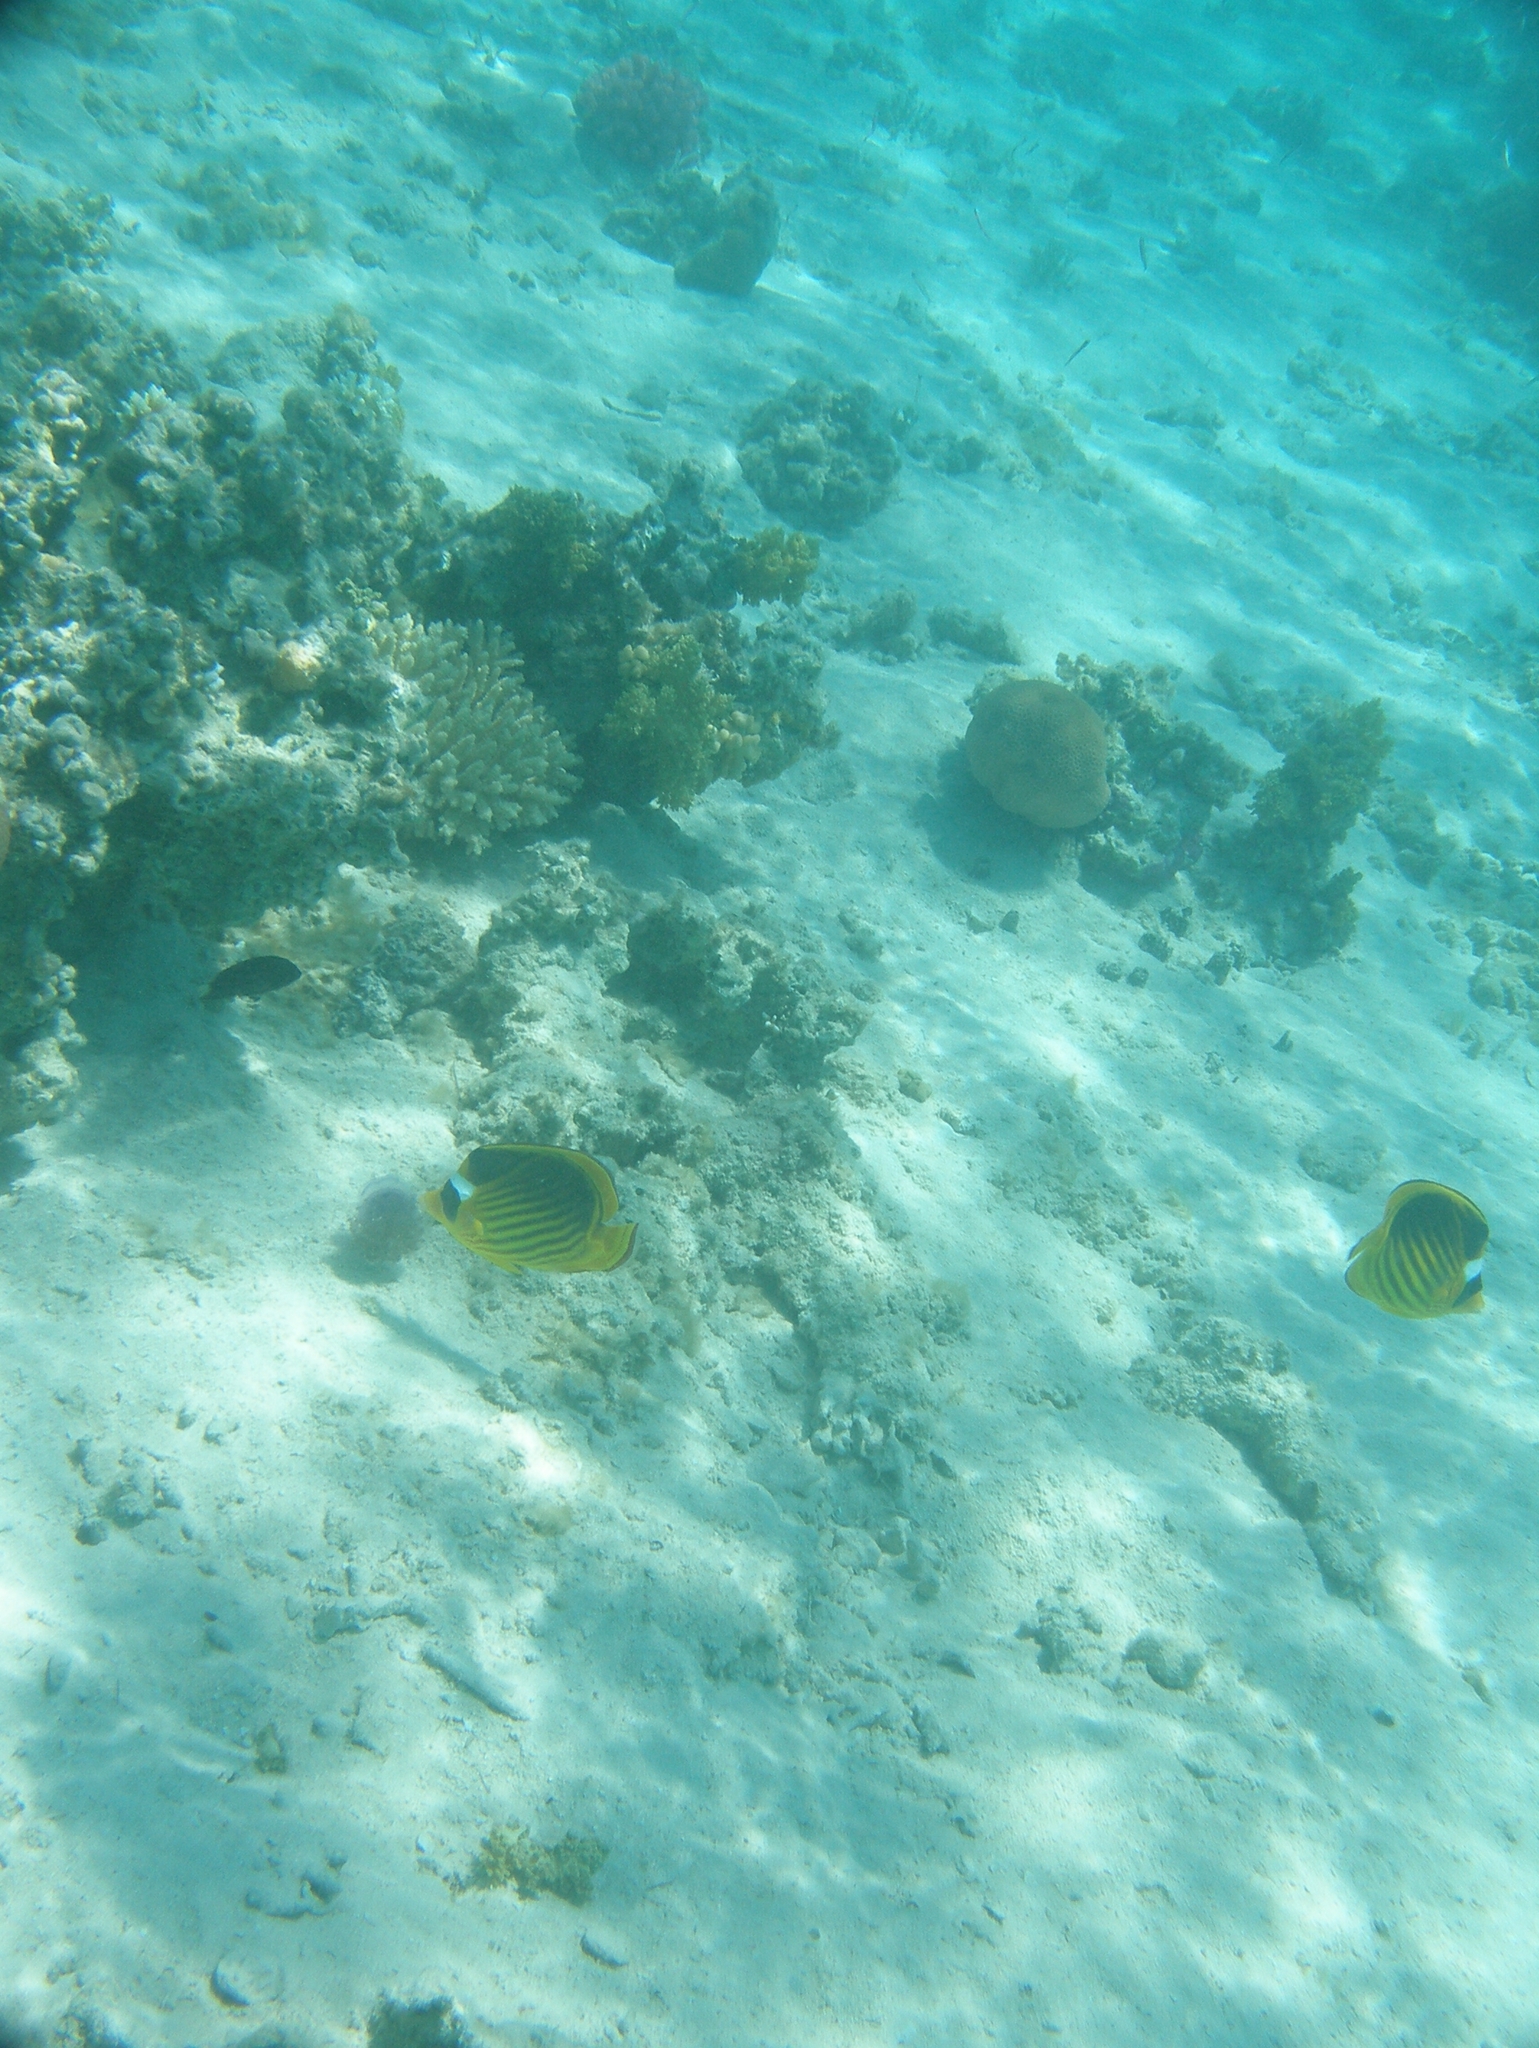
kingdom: Animalia
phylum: Chordata
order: Perciformes
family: Chaetodontidae
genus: Chaetodon
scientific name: Chaetodon fasciatus
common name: Diagonal butterflyfish
